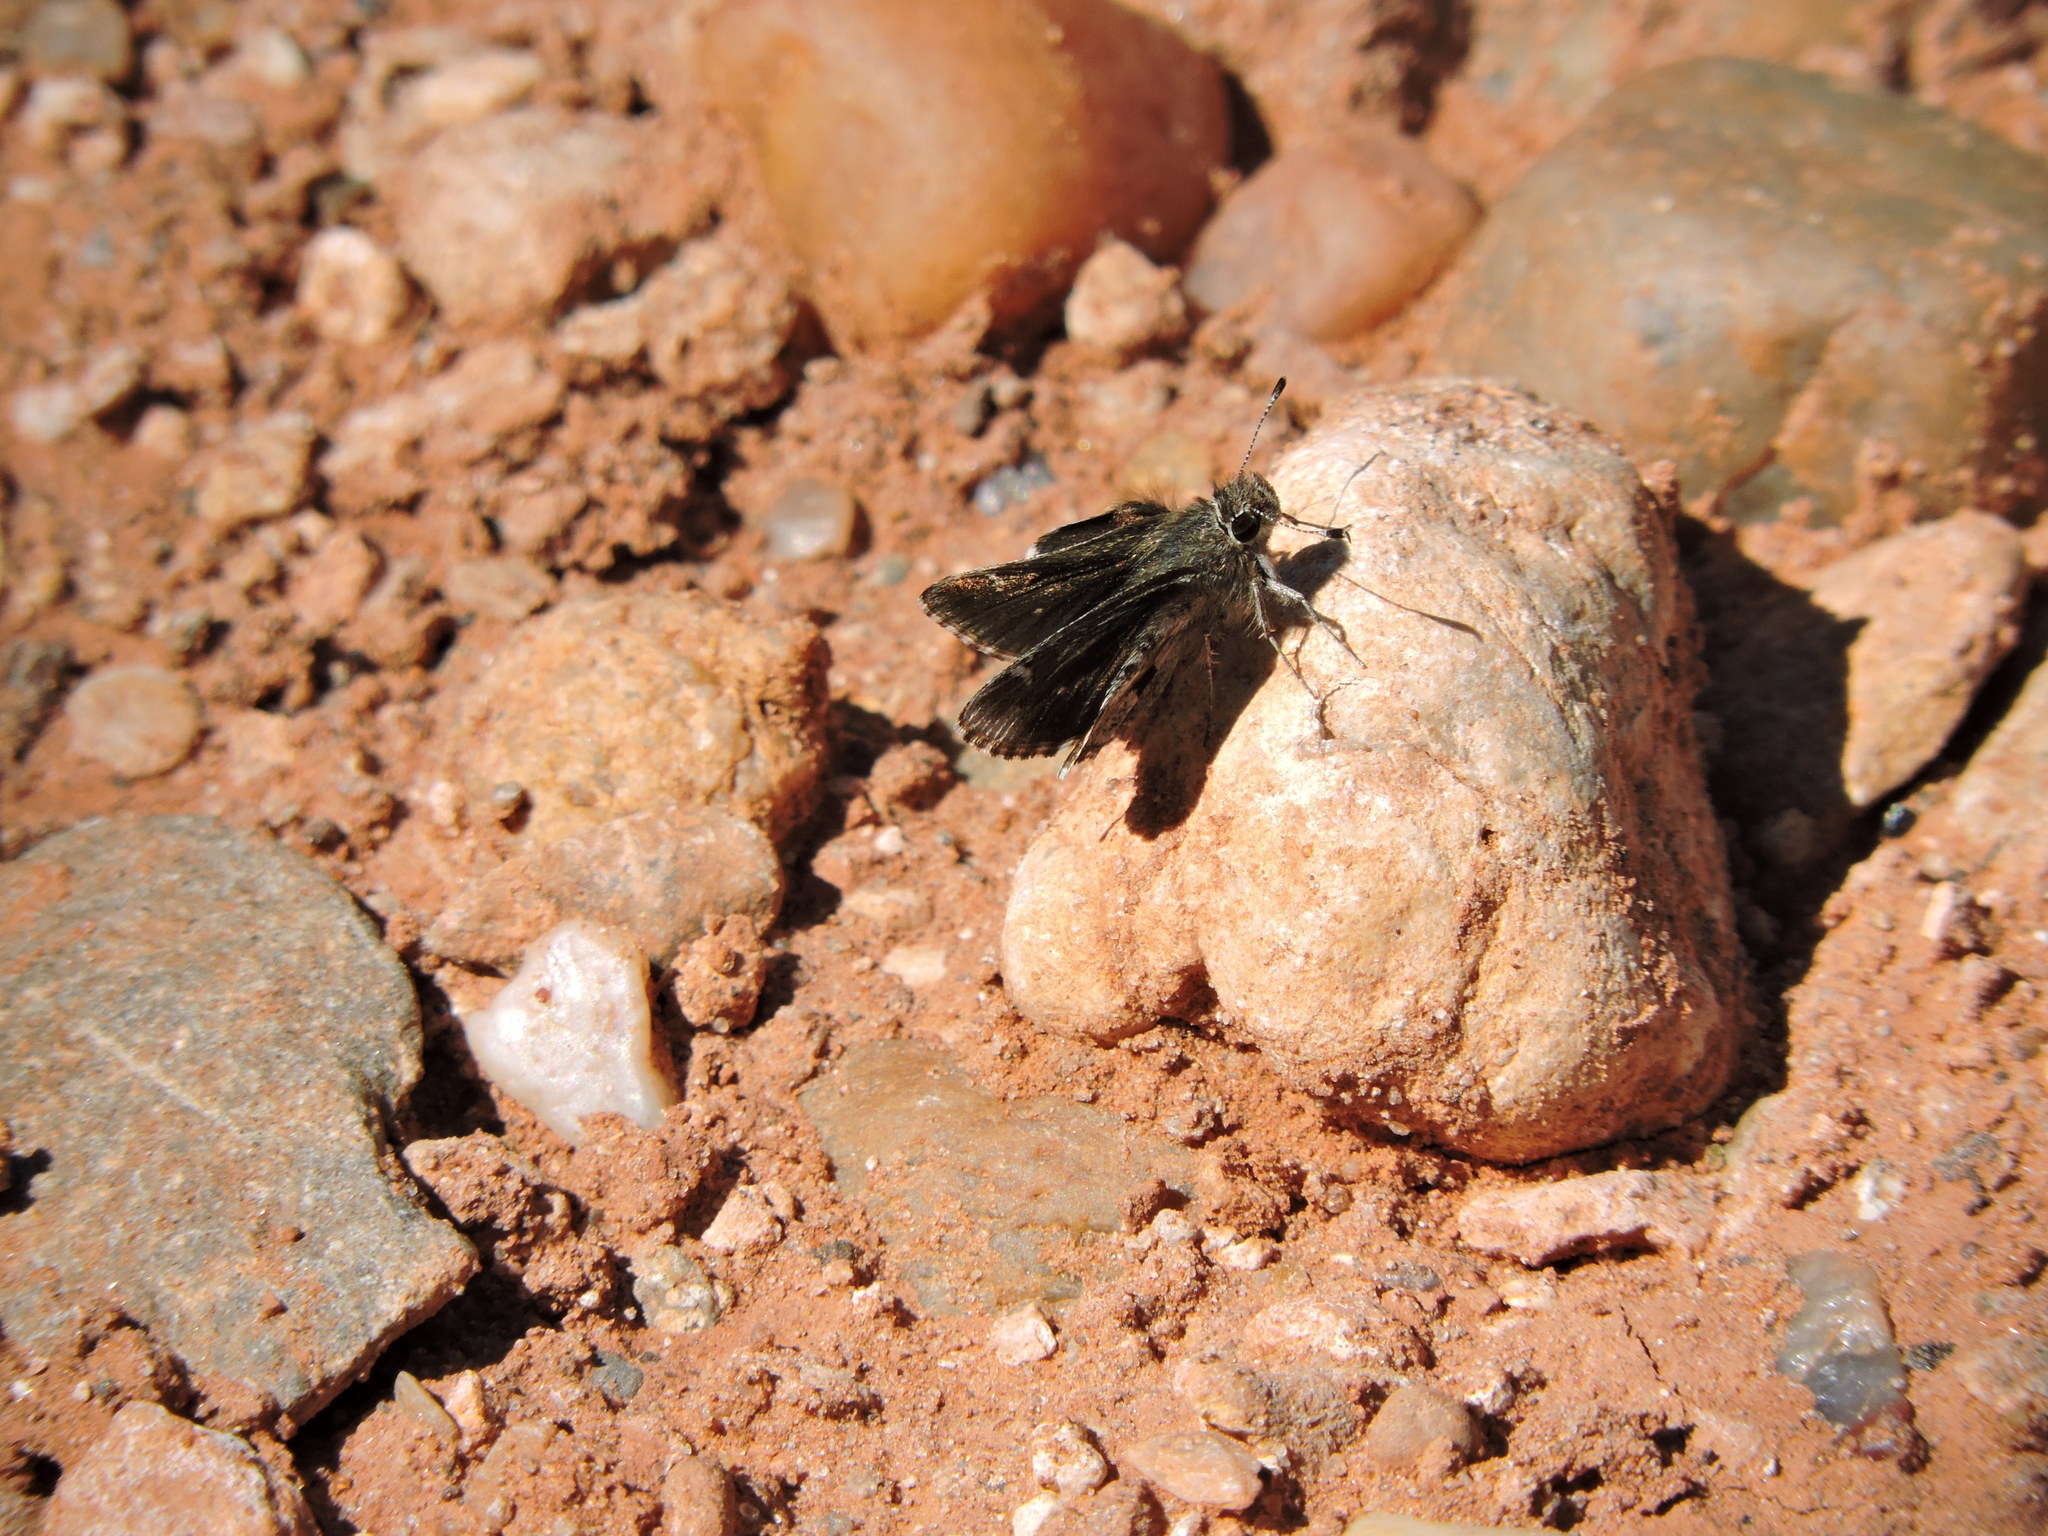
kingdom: Animalia
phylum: Arthropoda
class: Insecta
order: Lepidoptera
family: Hesperiidae
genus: Mastor
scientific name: Mastor nysa
